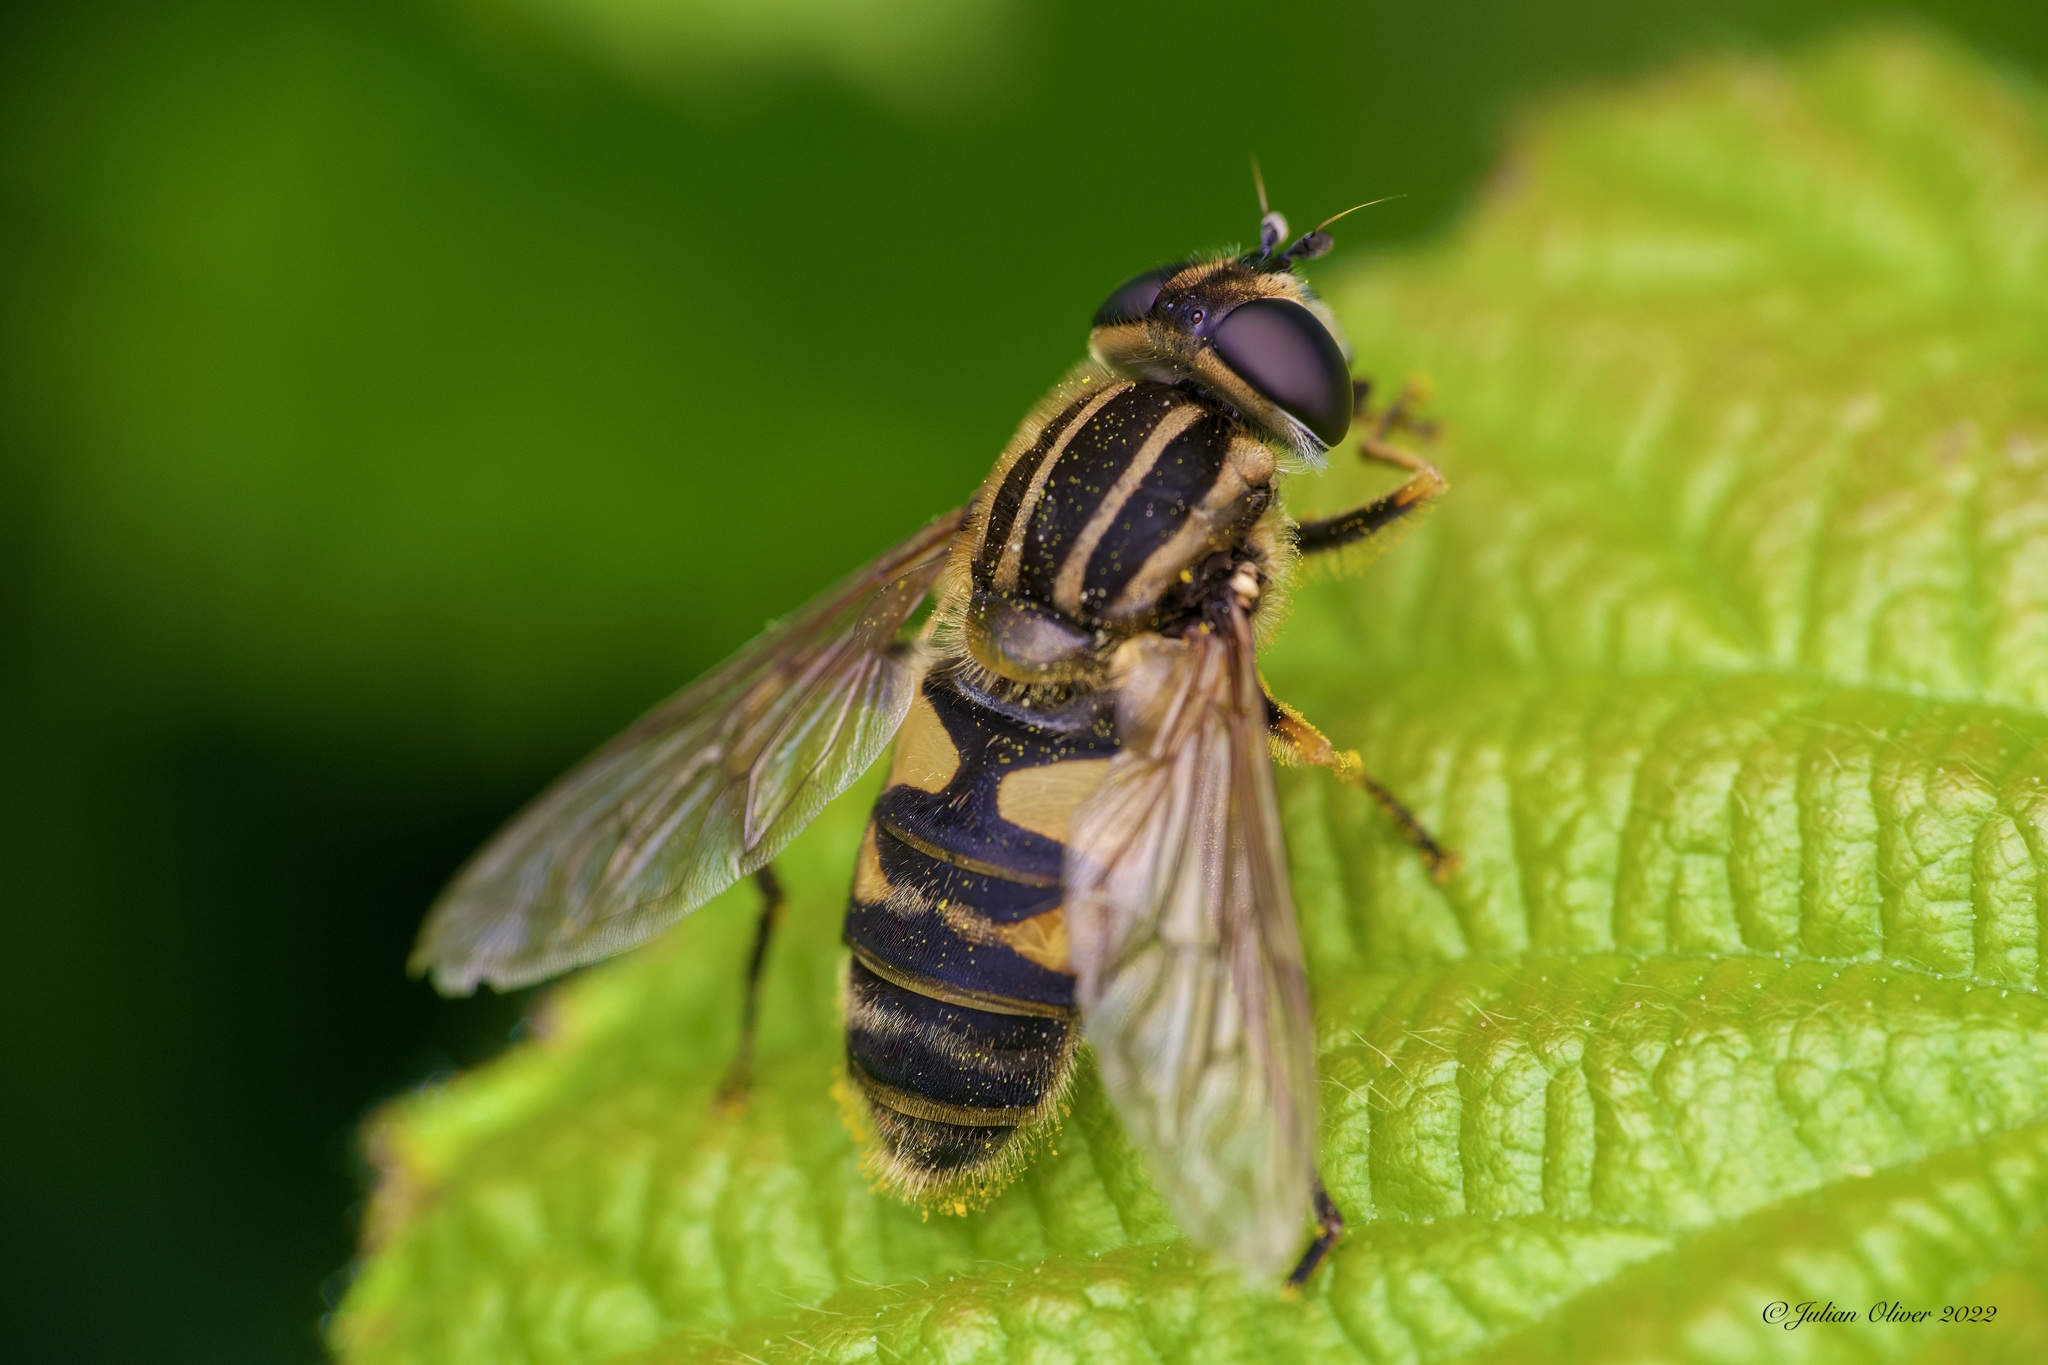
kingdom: Animalia
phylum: Arthropoda
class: Insecta
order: Diptera
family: Syrphidae
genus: Helophilus
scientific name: Helophilus pendulus
